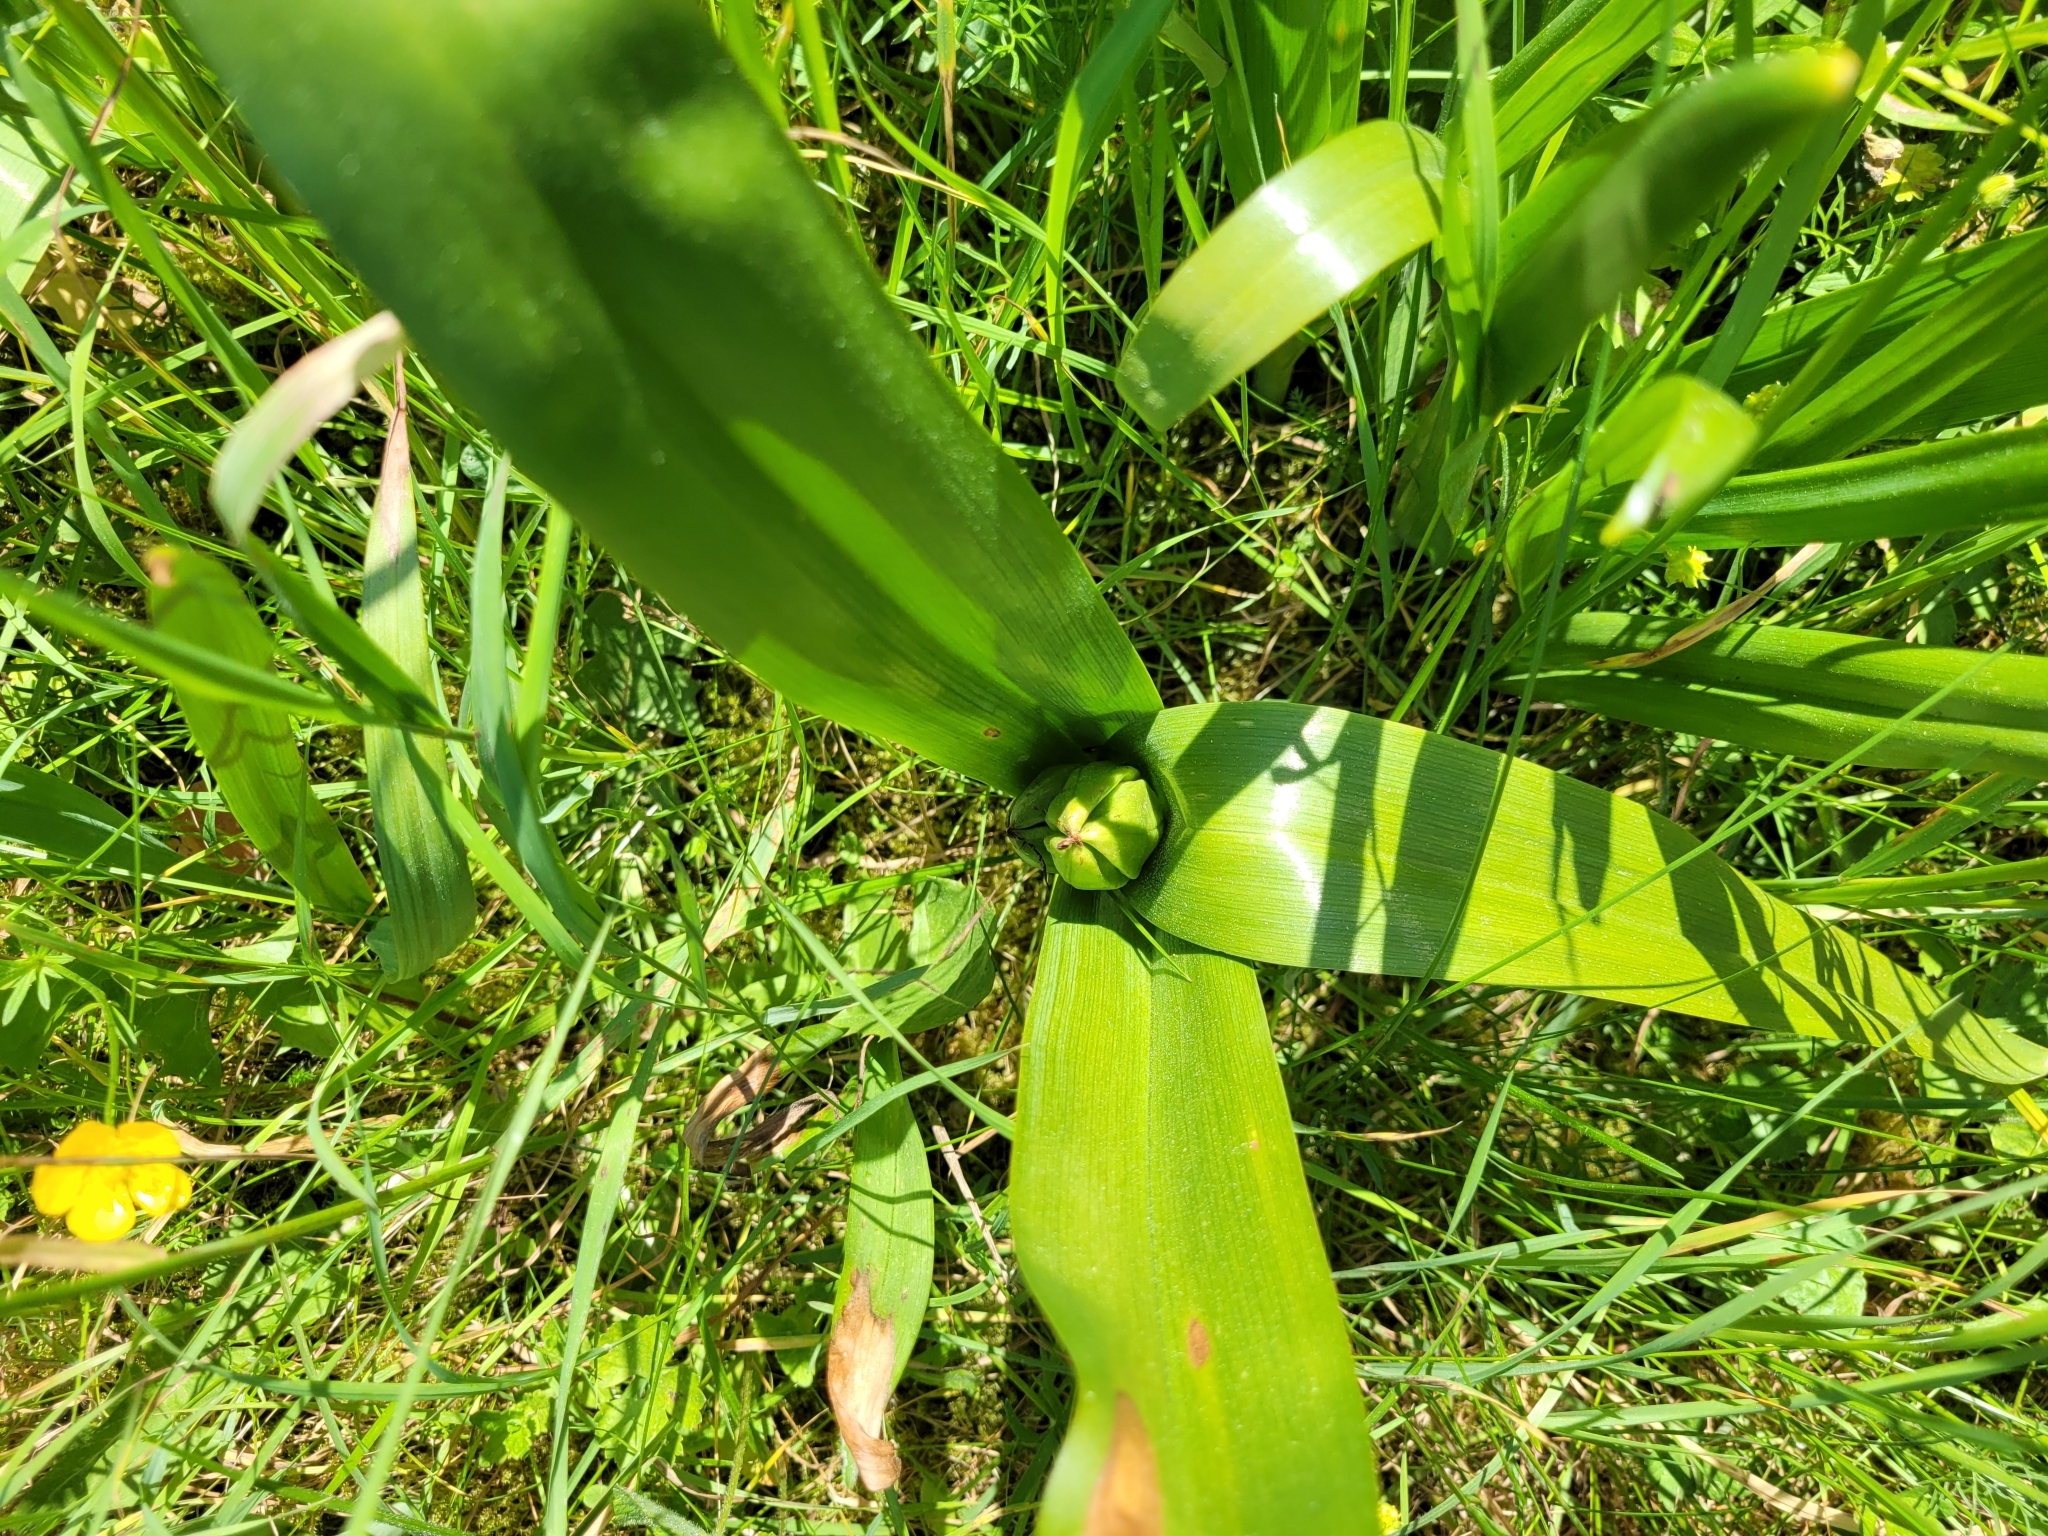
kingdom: Plantae
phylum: Tracheophyta
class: Liliopsida
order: Liliales
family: Colchicaceae
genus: Colchicum
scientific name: Colchicum autumnale
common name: Autumn crocus
